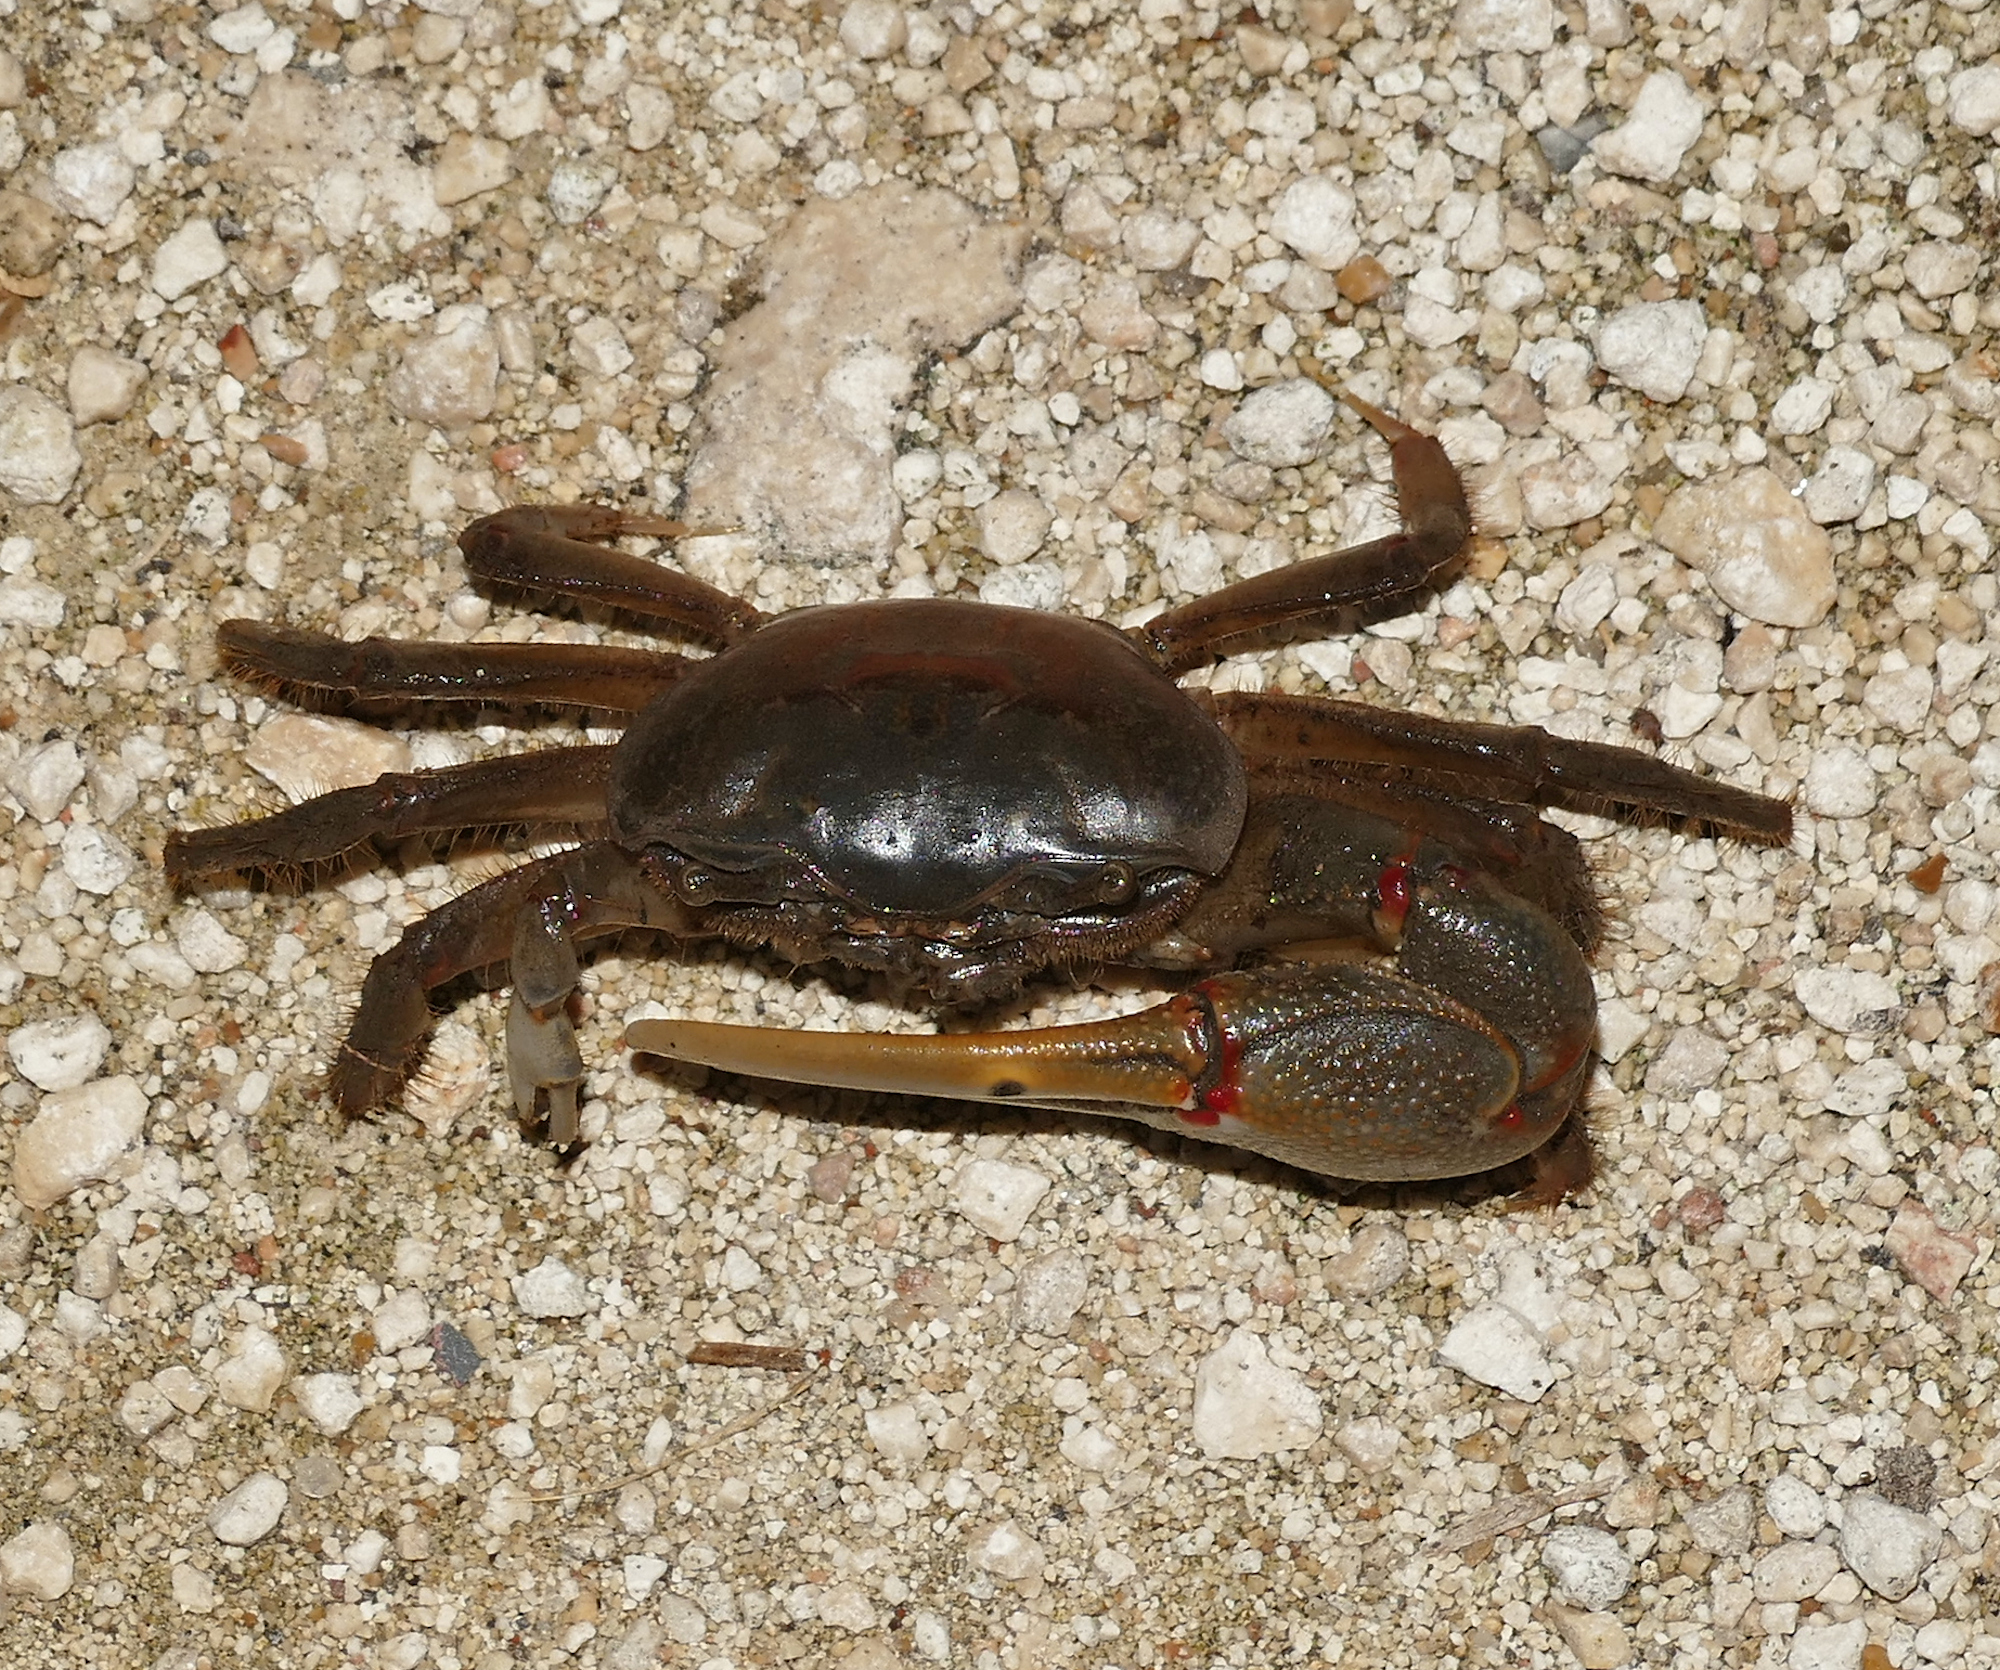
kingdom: Animalia
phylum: Arthropoda
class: Malacostraca
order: Decapoda
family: Ocypodidae
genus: Minuca
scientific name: Minuca minax
